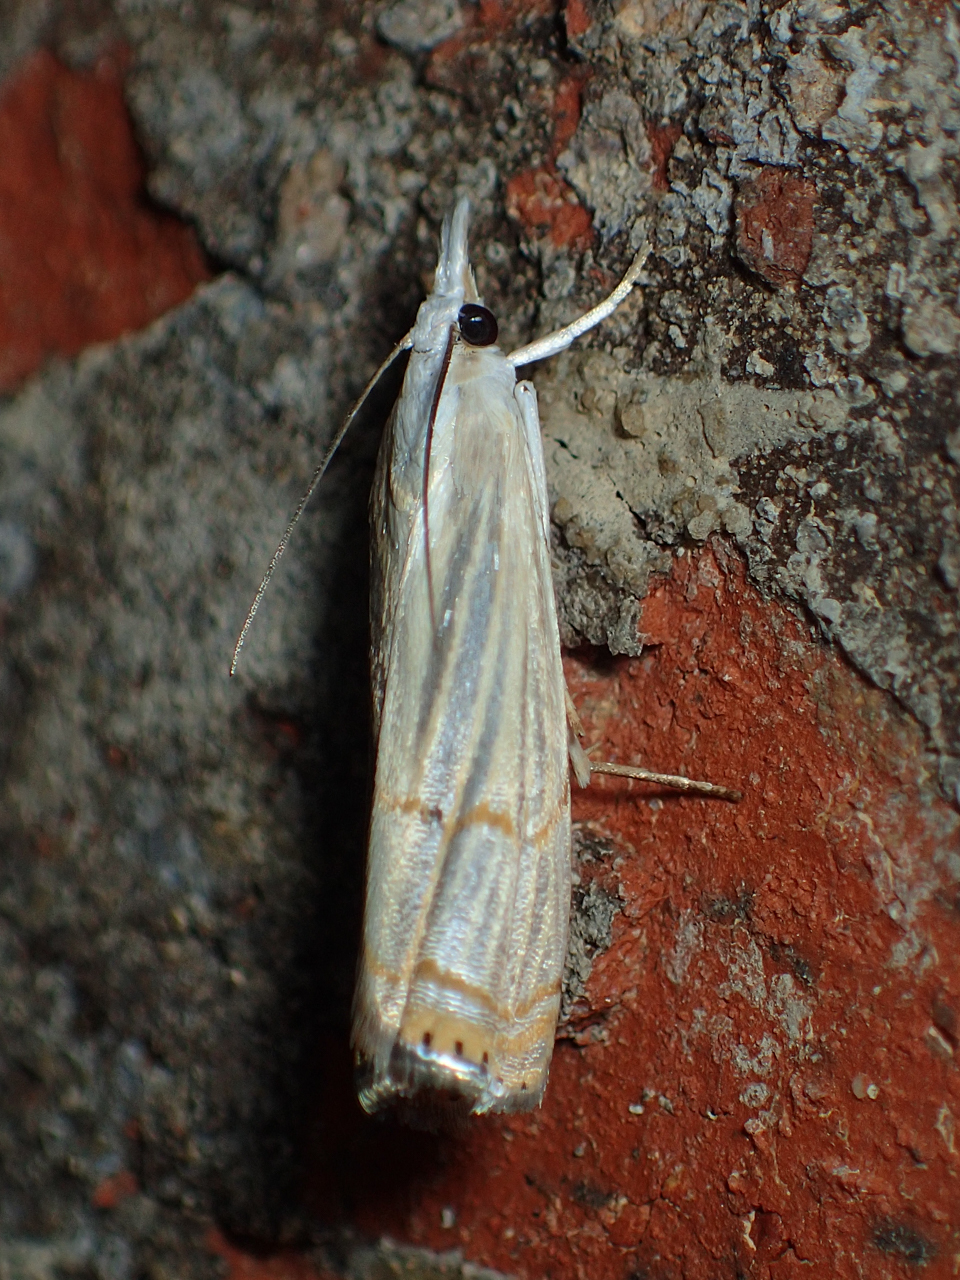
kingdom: Animalia
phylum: Arthropoda
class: Insecta
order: Lepidoptera
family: Crambidae
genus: Parapediasia
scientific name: Parapediasia decorellus
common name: Graceful grass-veneer
